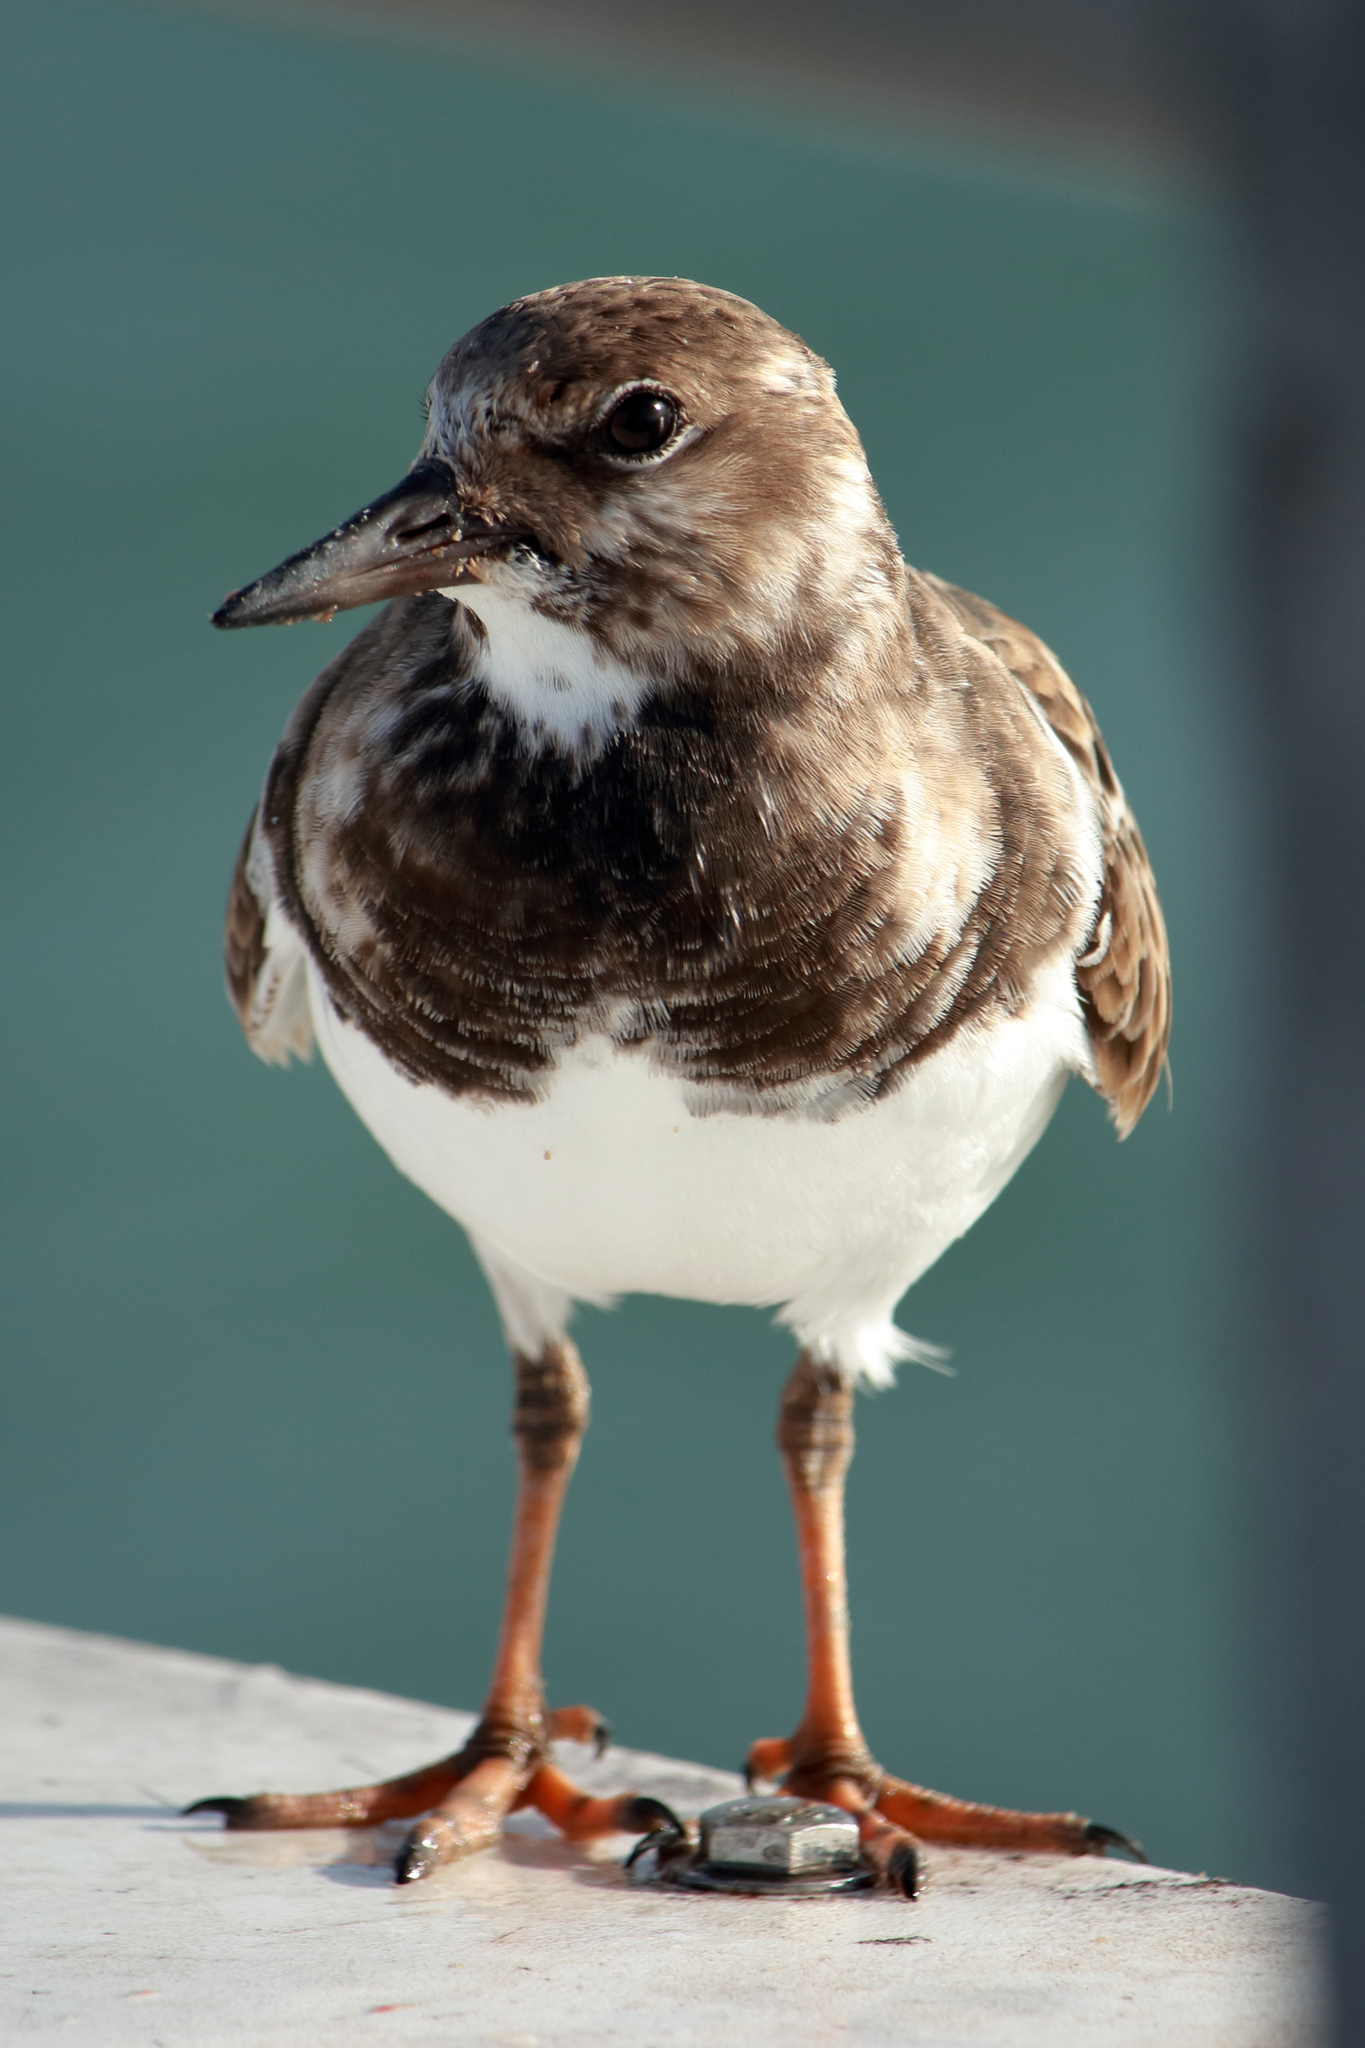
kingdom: Animalia
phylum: Chordata
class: Aves
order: Charadriiformes
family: Scolopacidae
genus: Arenaria
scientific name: Arenaria interpres
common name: Ruddy turnstone
